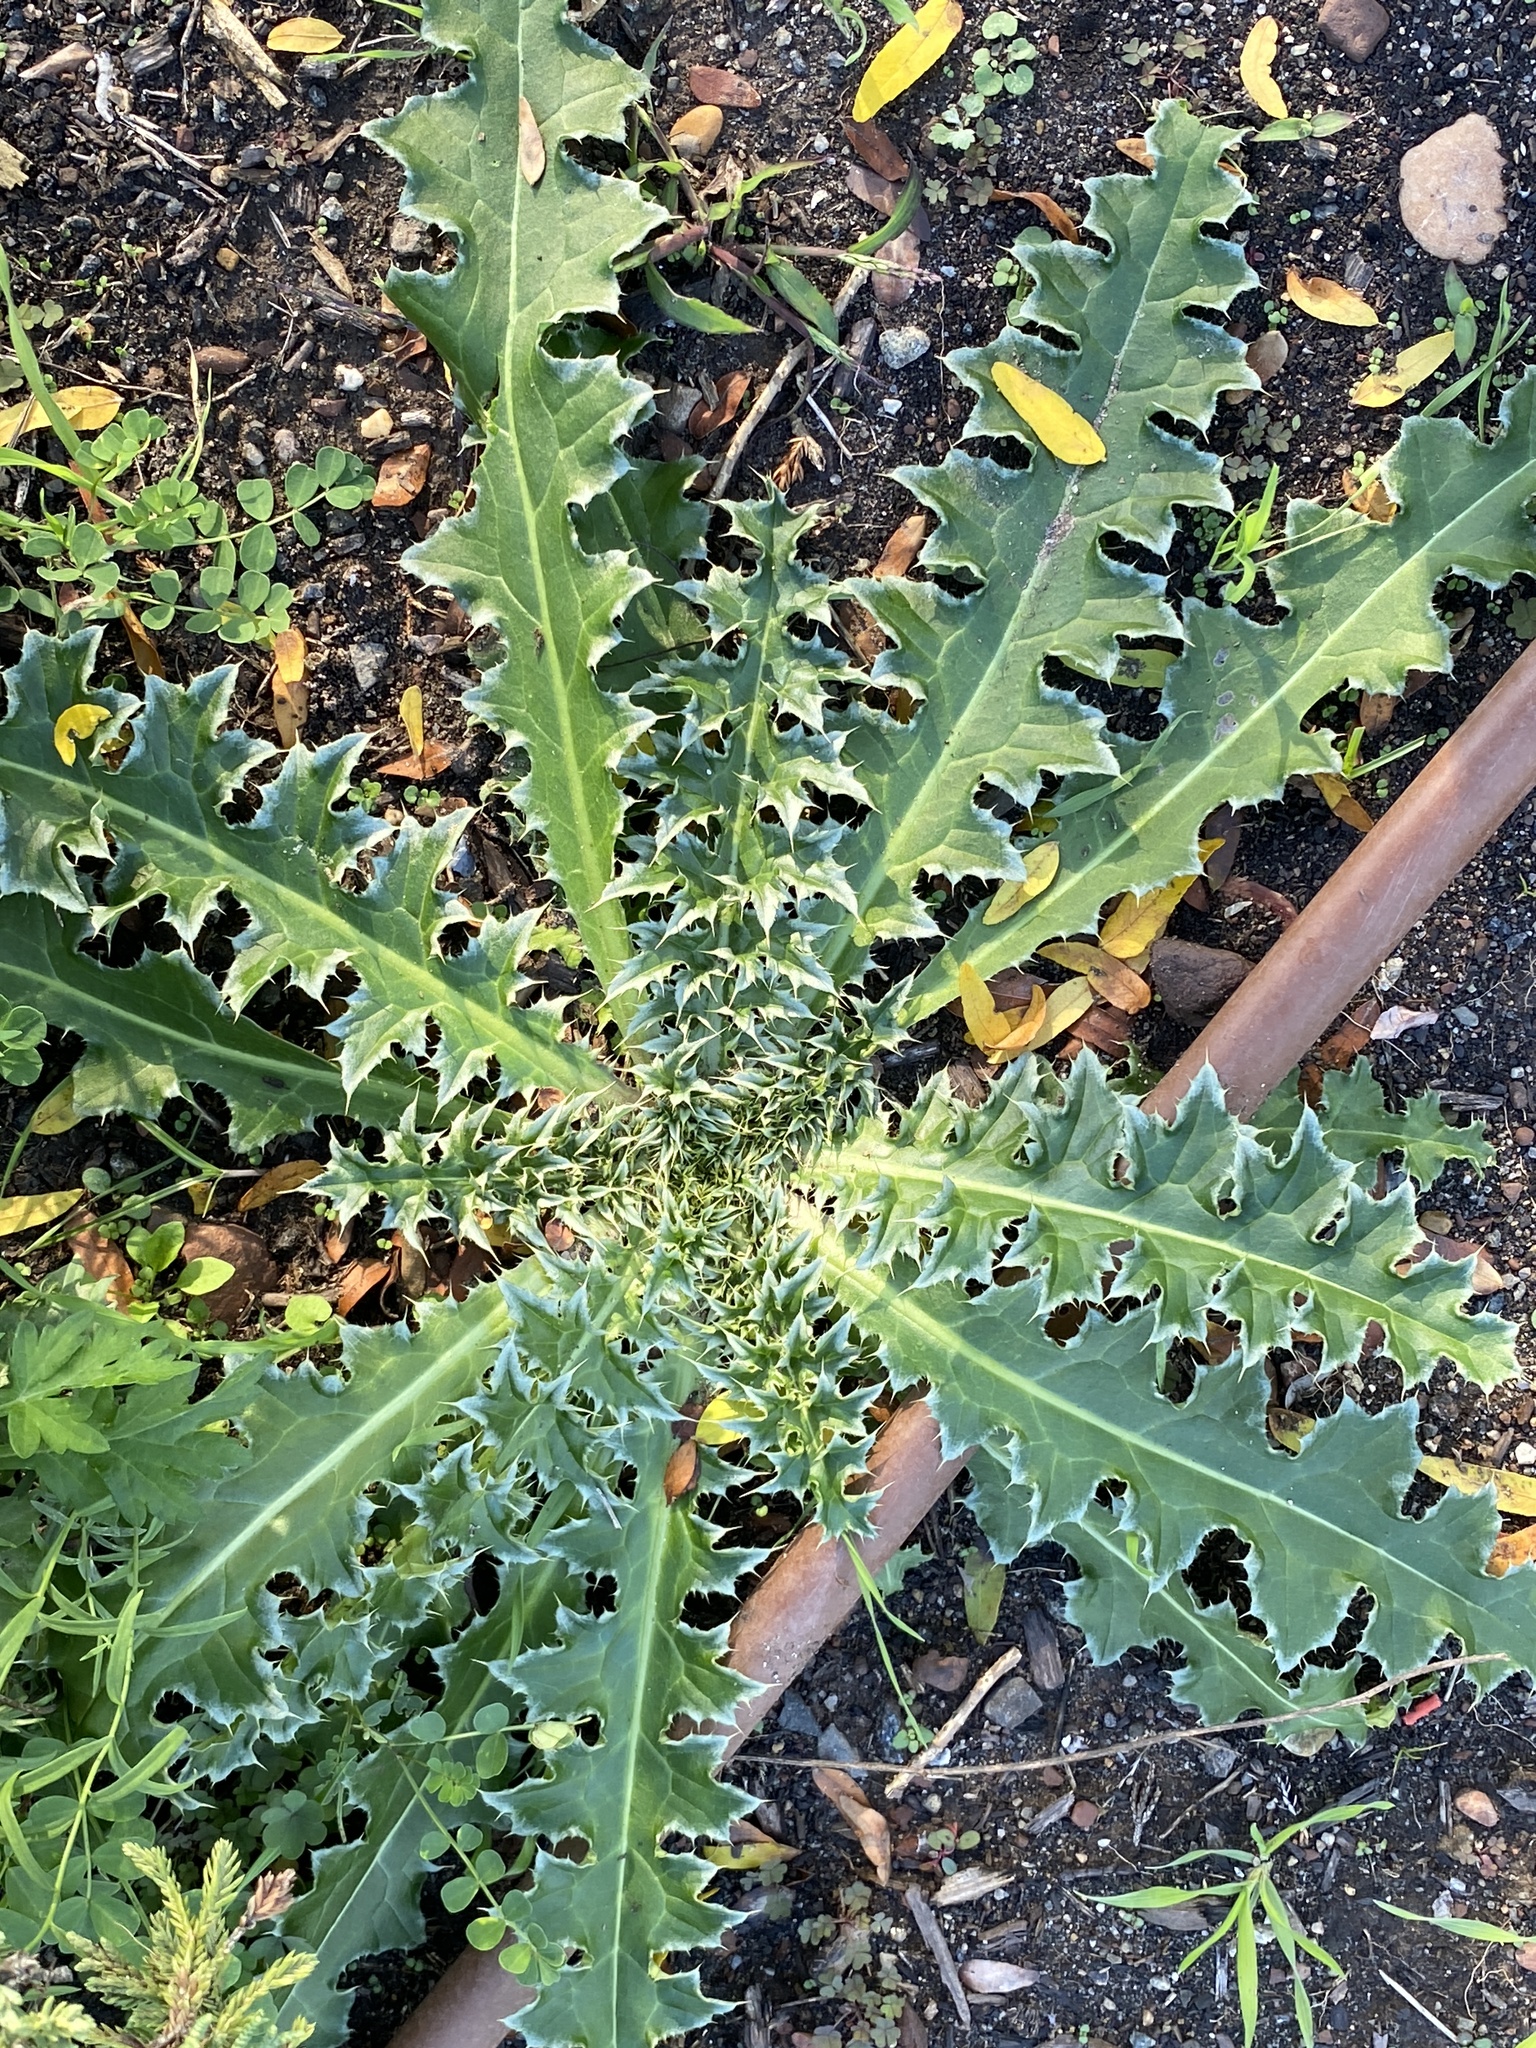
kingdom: Plantae
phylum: Tracheophyta
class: Magnoliopsida
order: Asterales
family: Asteraceae
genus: Carduus
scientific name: Carduus nutans
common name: Musk thistle
